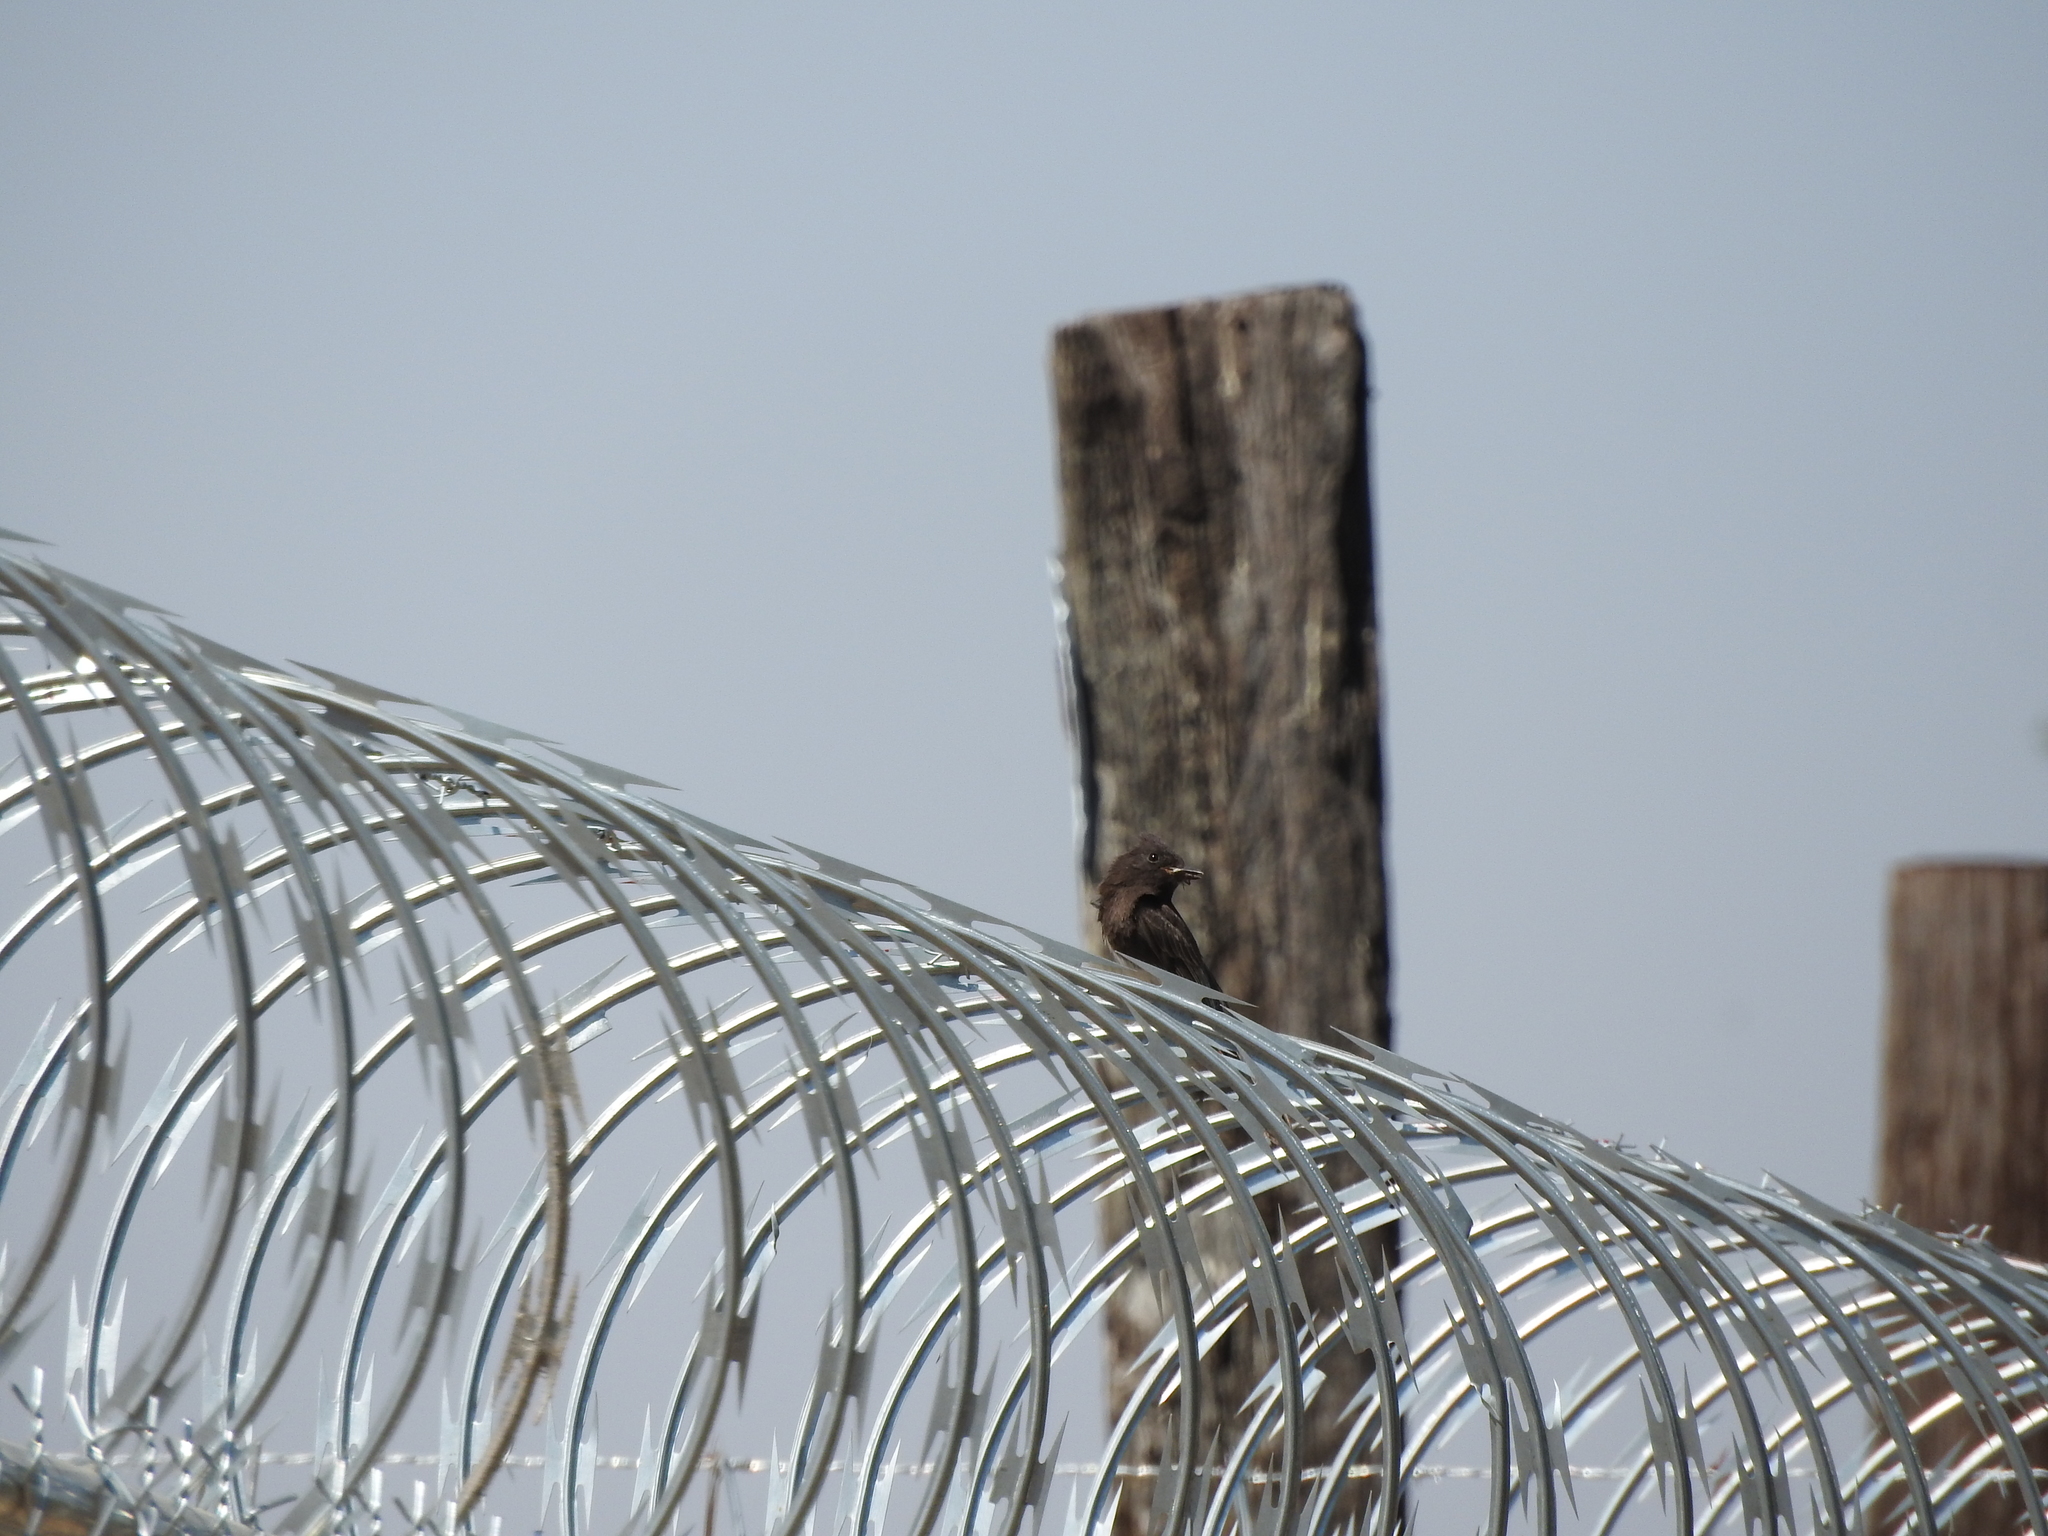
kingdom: Animalia
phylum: Chordata
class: Aves
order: Passeriformes
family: Tyrannidae
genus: Sayornis
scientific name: Sayornis nigricans
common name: Black phoebe
